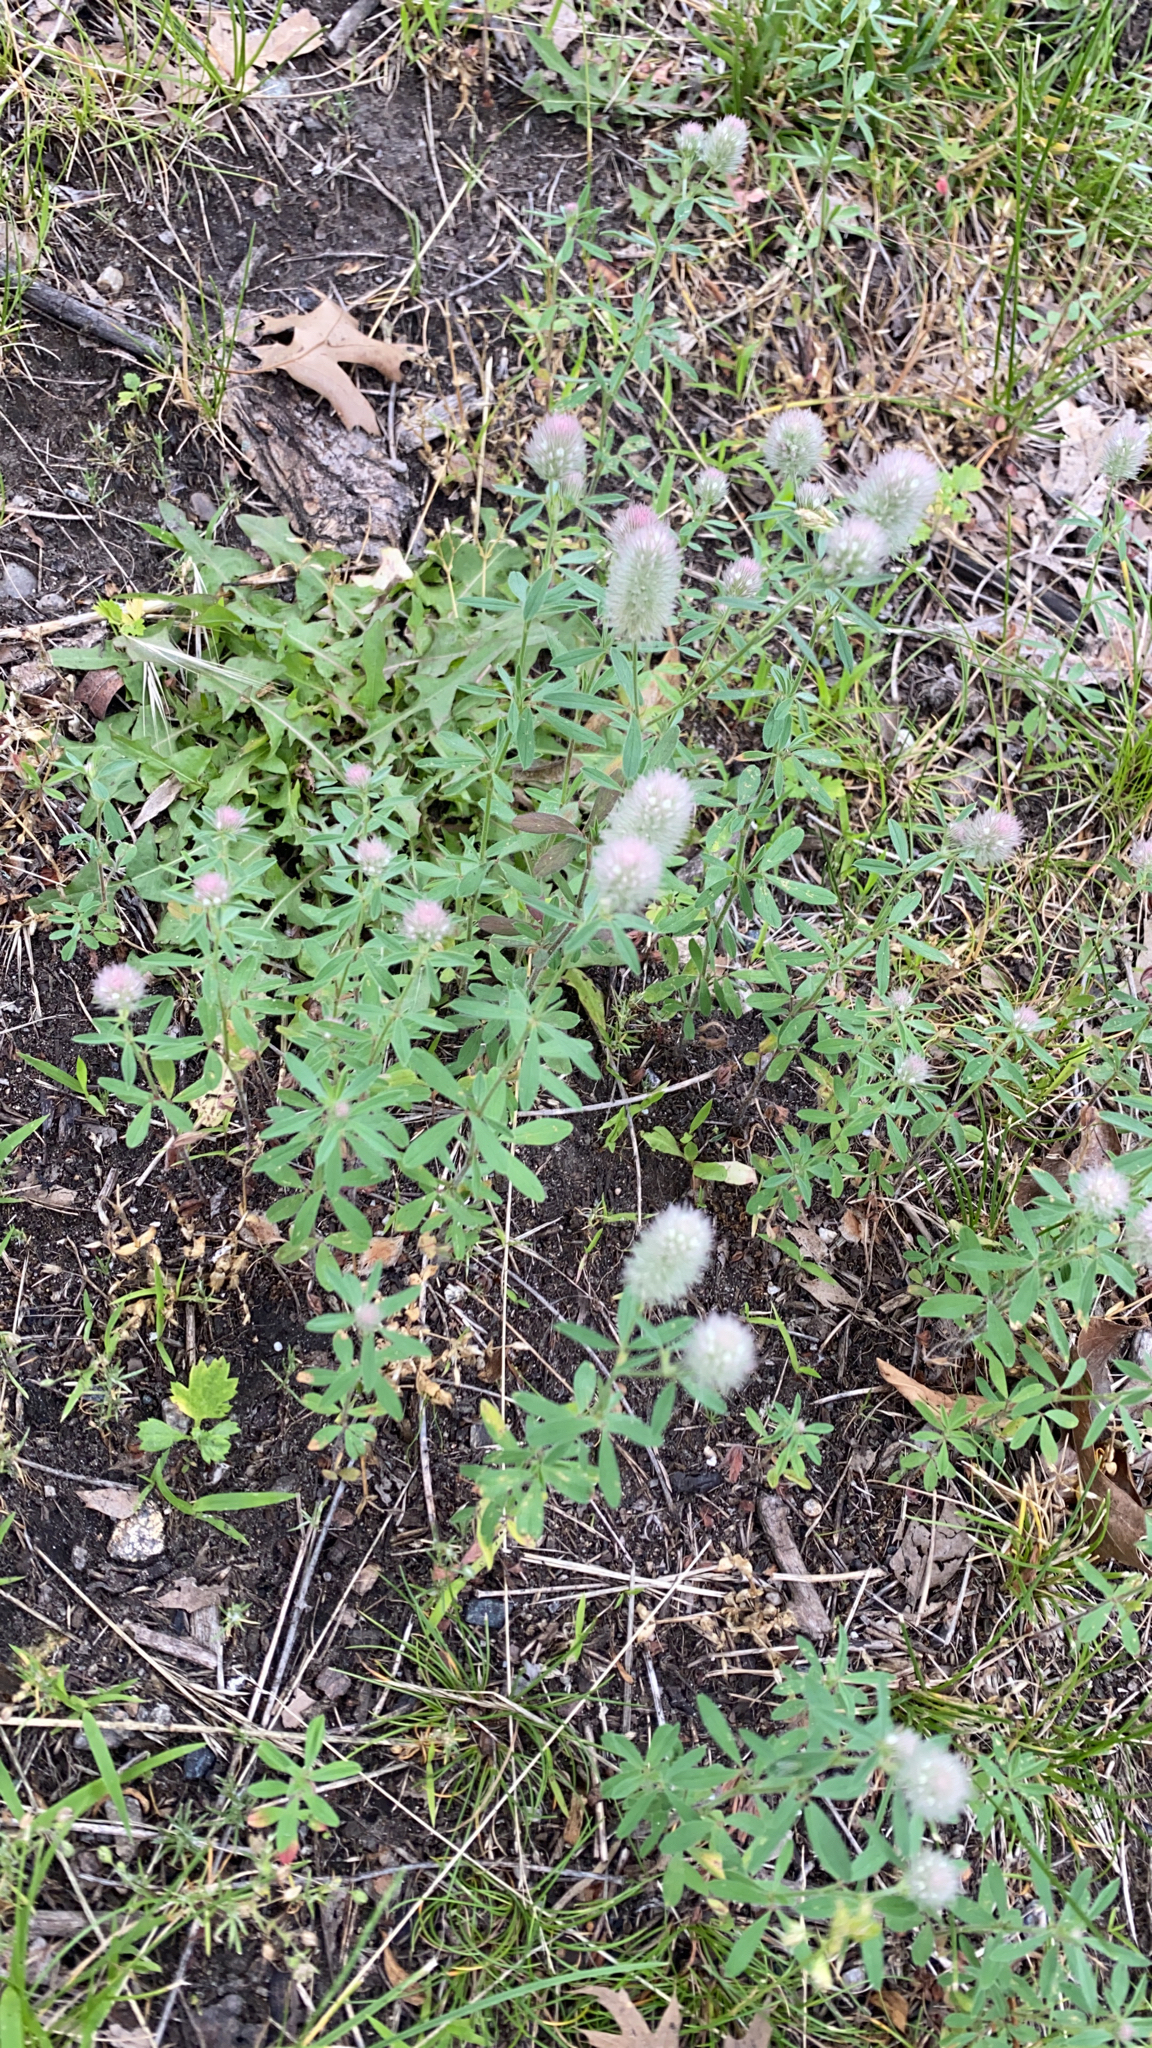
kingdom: Plantae
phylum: Tracheophyta
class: Magnoliopsida
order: Fabales
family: Fabaceae
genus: Trifolium
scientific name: Trifolium arvense
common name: Hare's-foot clover
